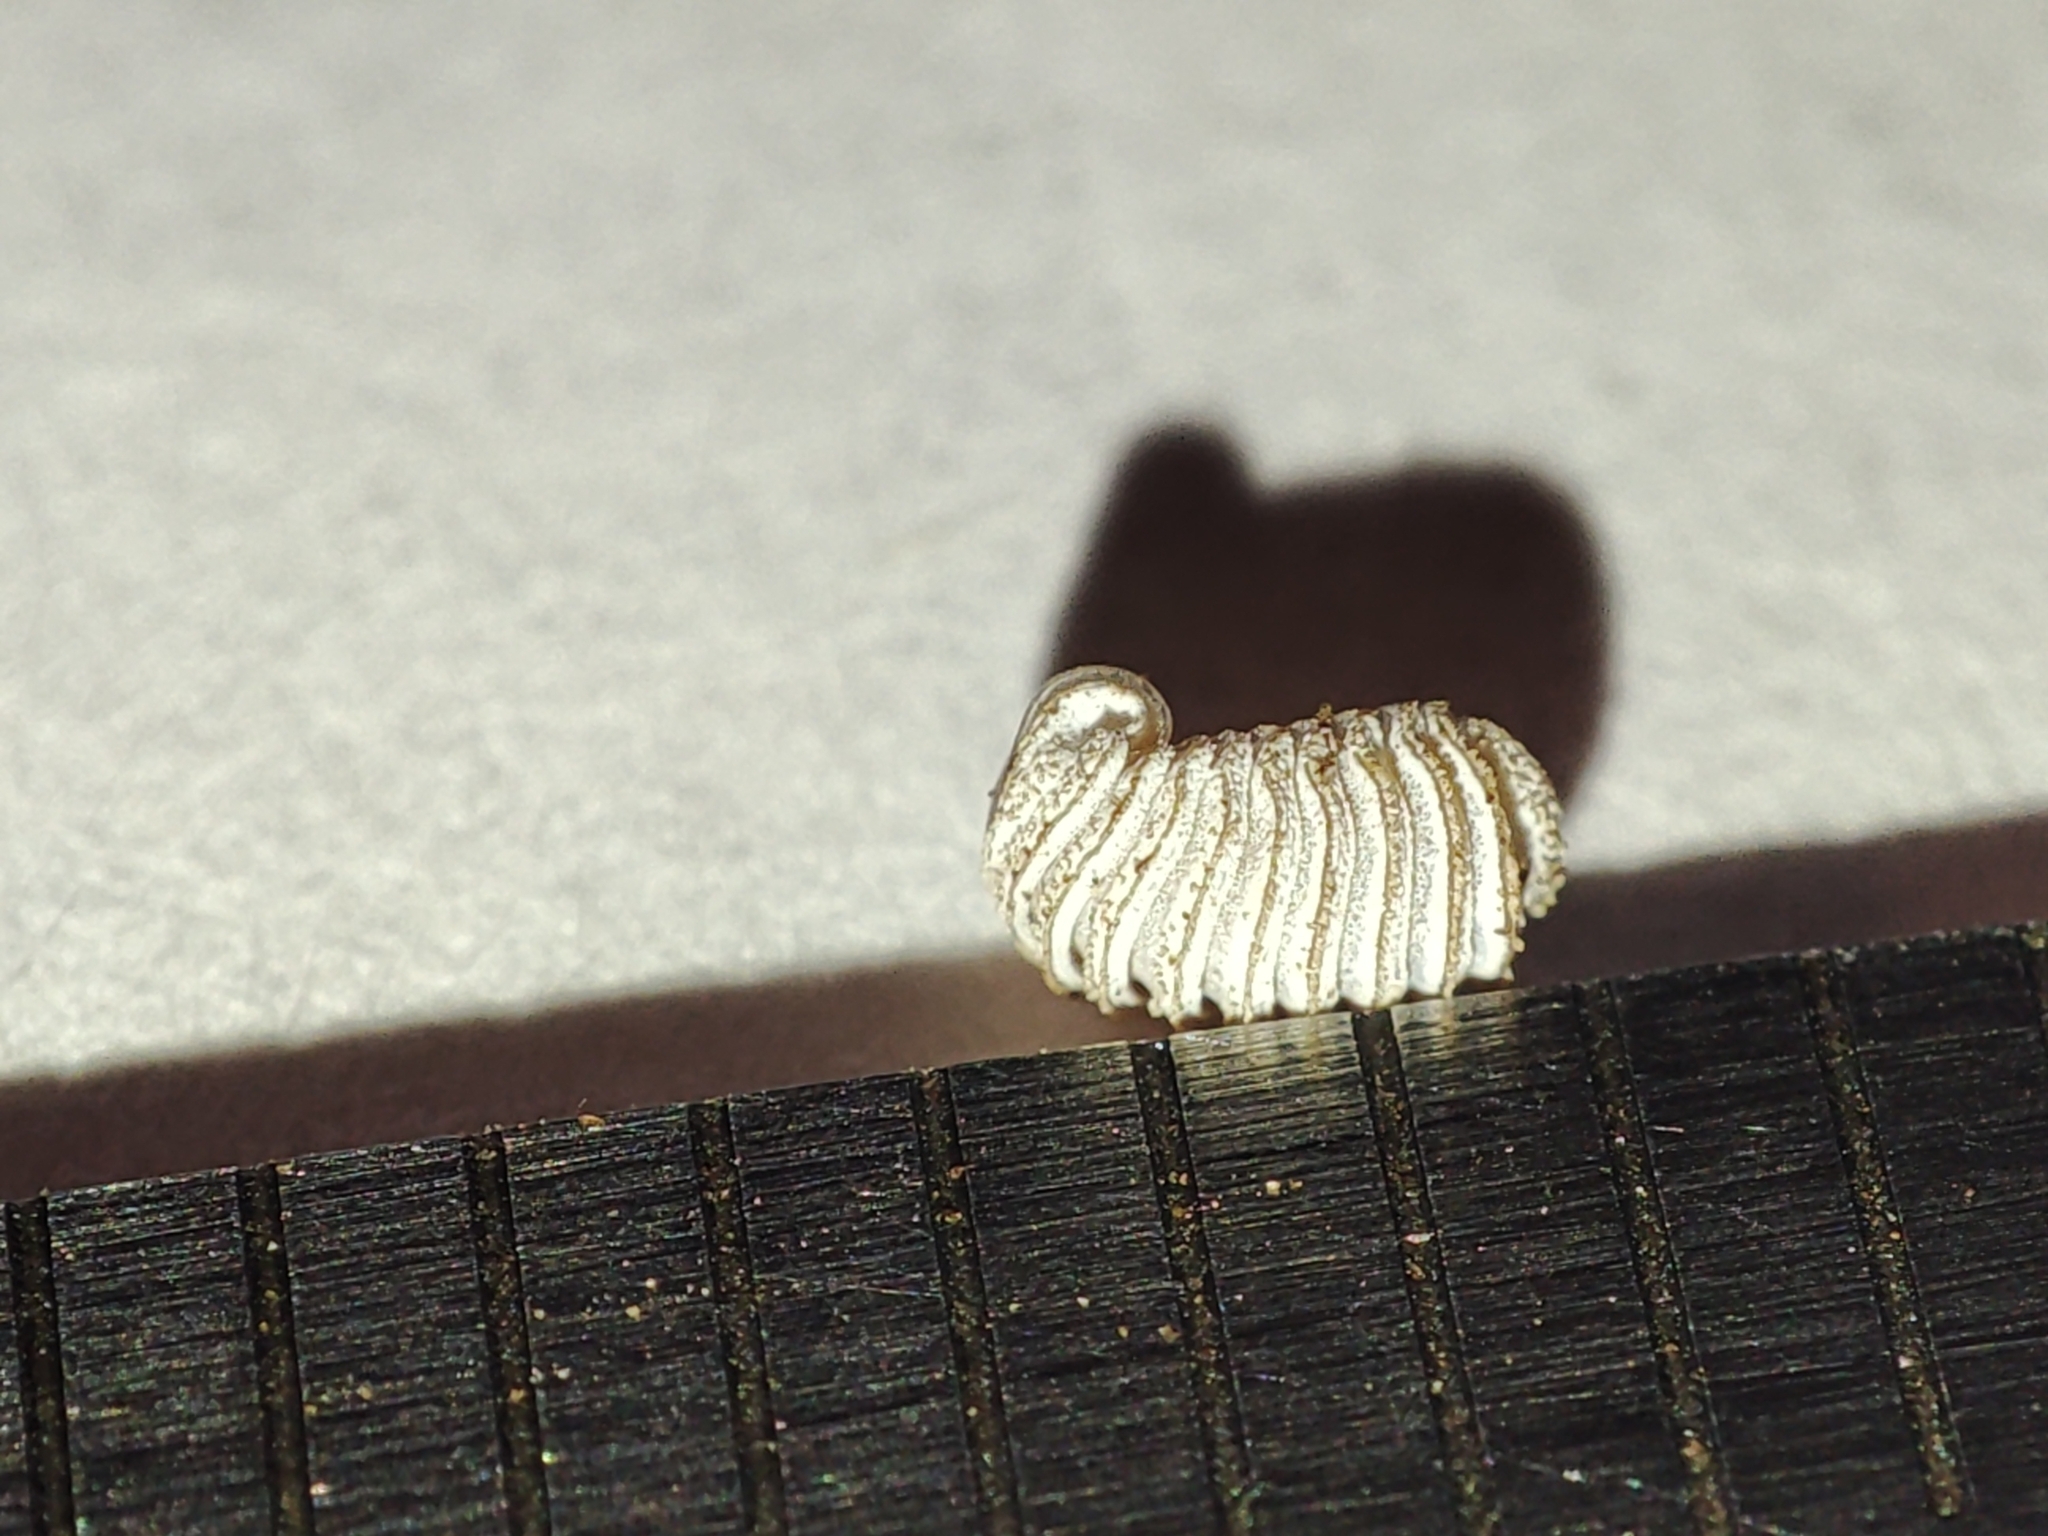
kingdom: Animalia
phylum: Arthropoda
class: Diplopoda
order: Glomerida
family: Glomeridae
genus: Trachysphaera
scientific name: Trachysphaera costata
